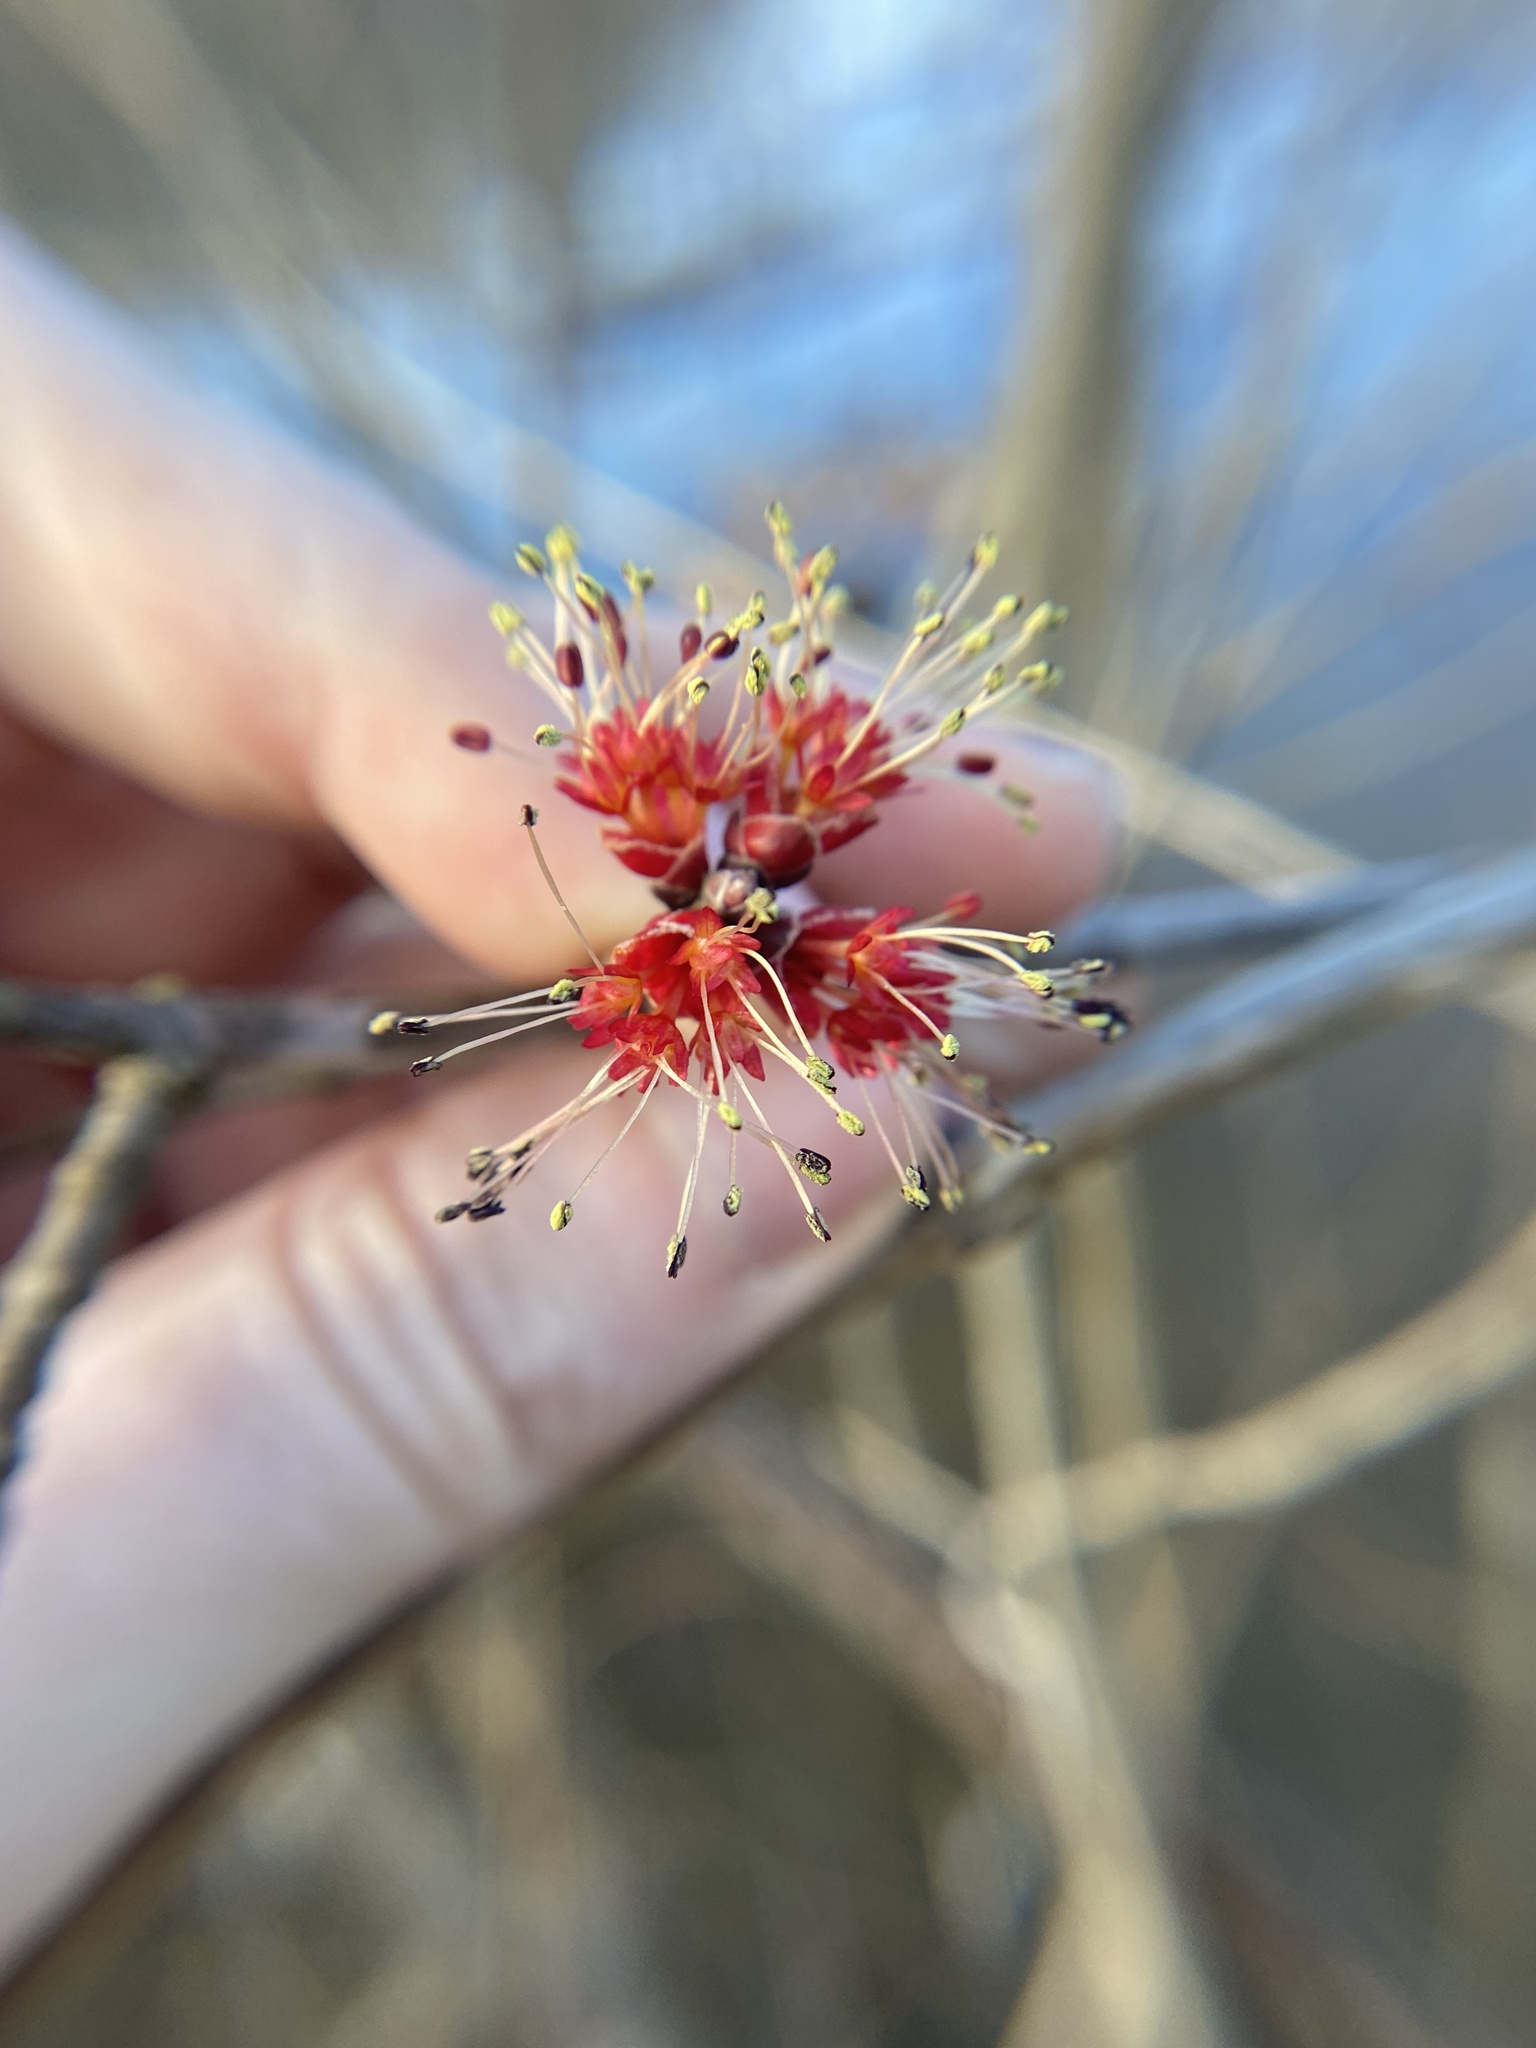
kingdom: Plantae
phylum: Tracheophyta
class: Magnoliopsida
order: Sapindales
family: Sapindaceae
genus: Acer
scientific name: Acer rubrum
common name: Red maple
